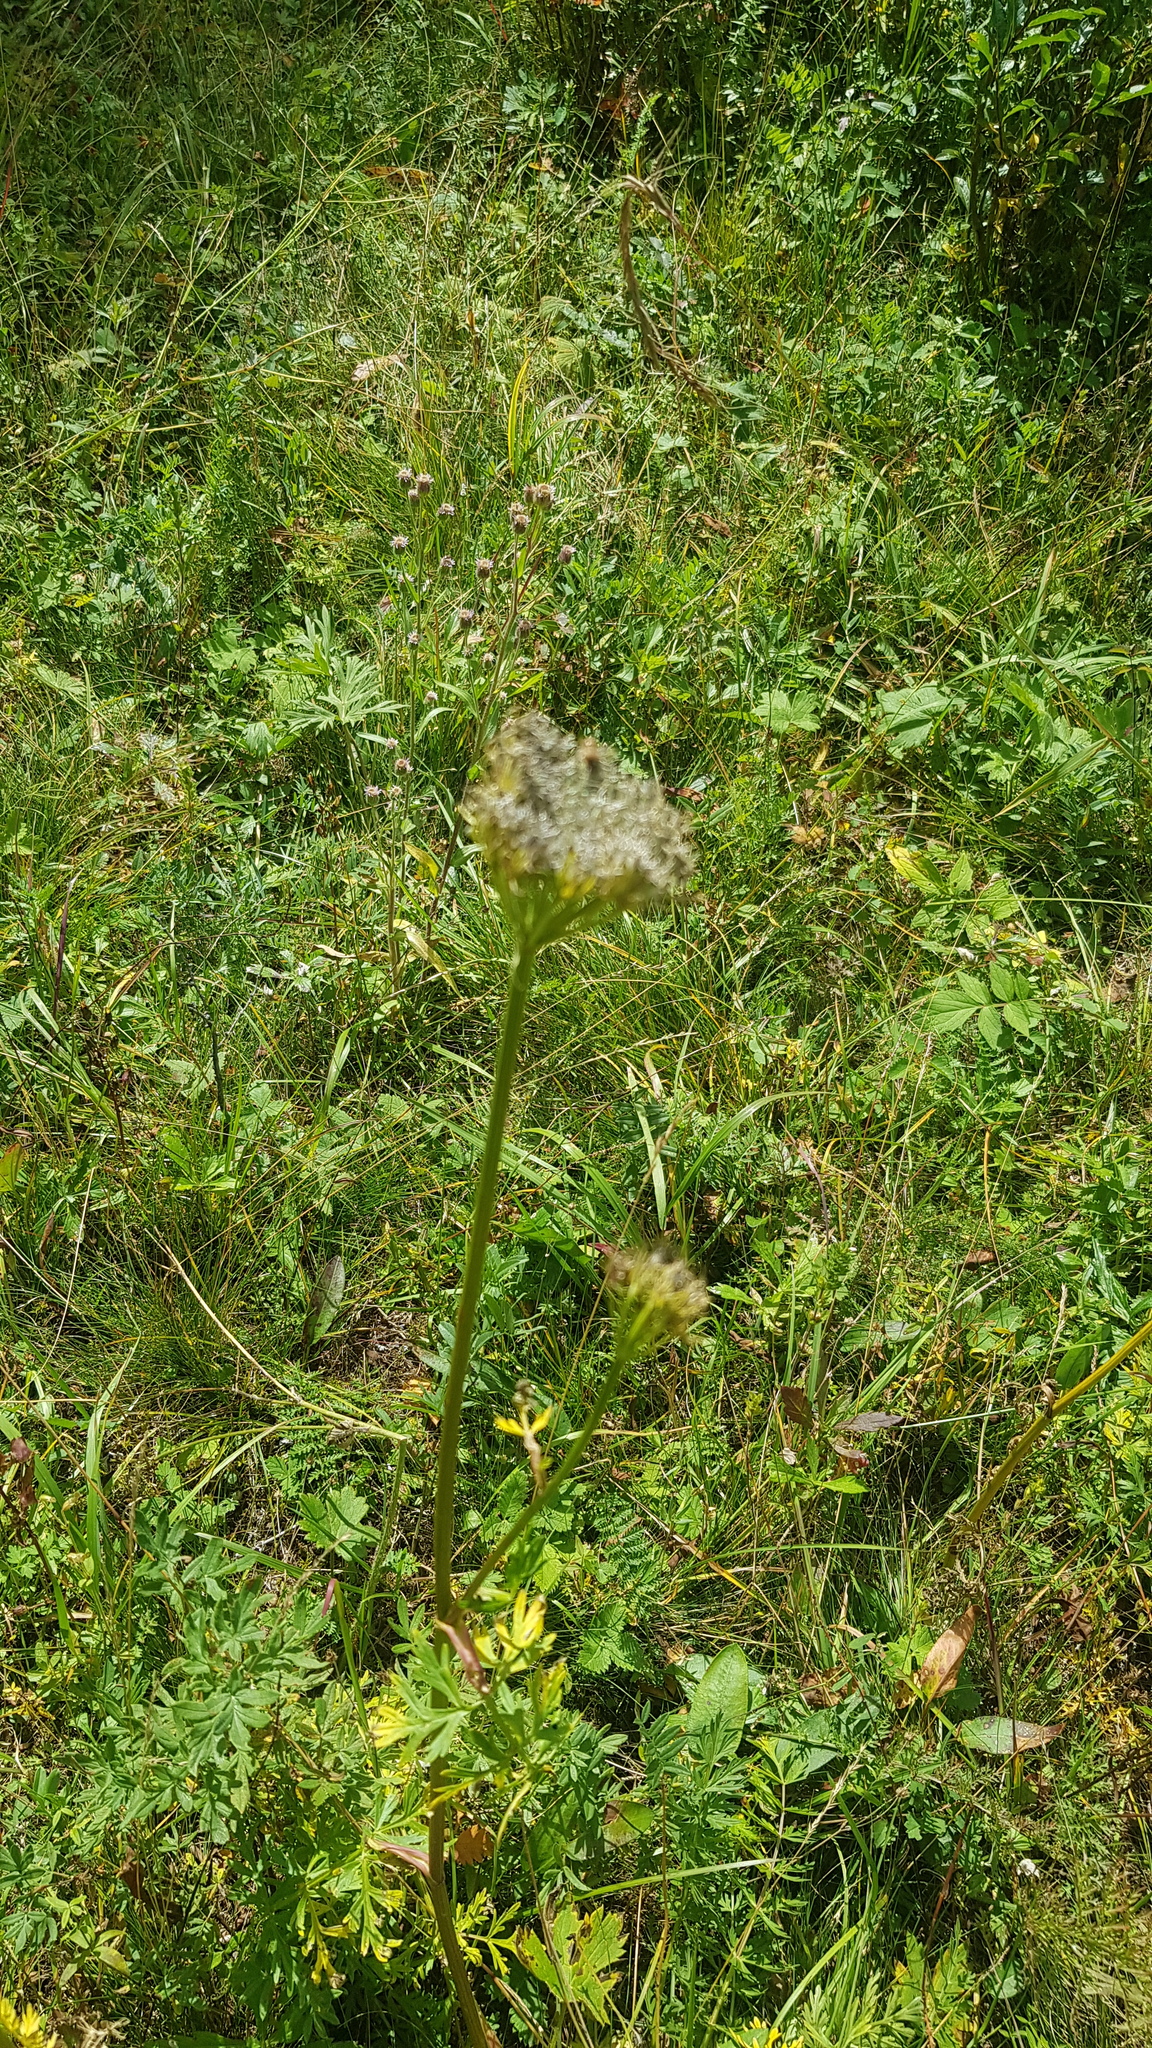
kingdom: Plantae
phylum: Tracheophyta
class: Magnoliopsida
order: Apiales
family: Apiaceae
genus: Seseli
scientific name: Seseli condensatum
